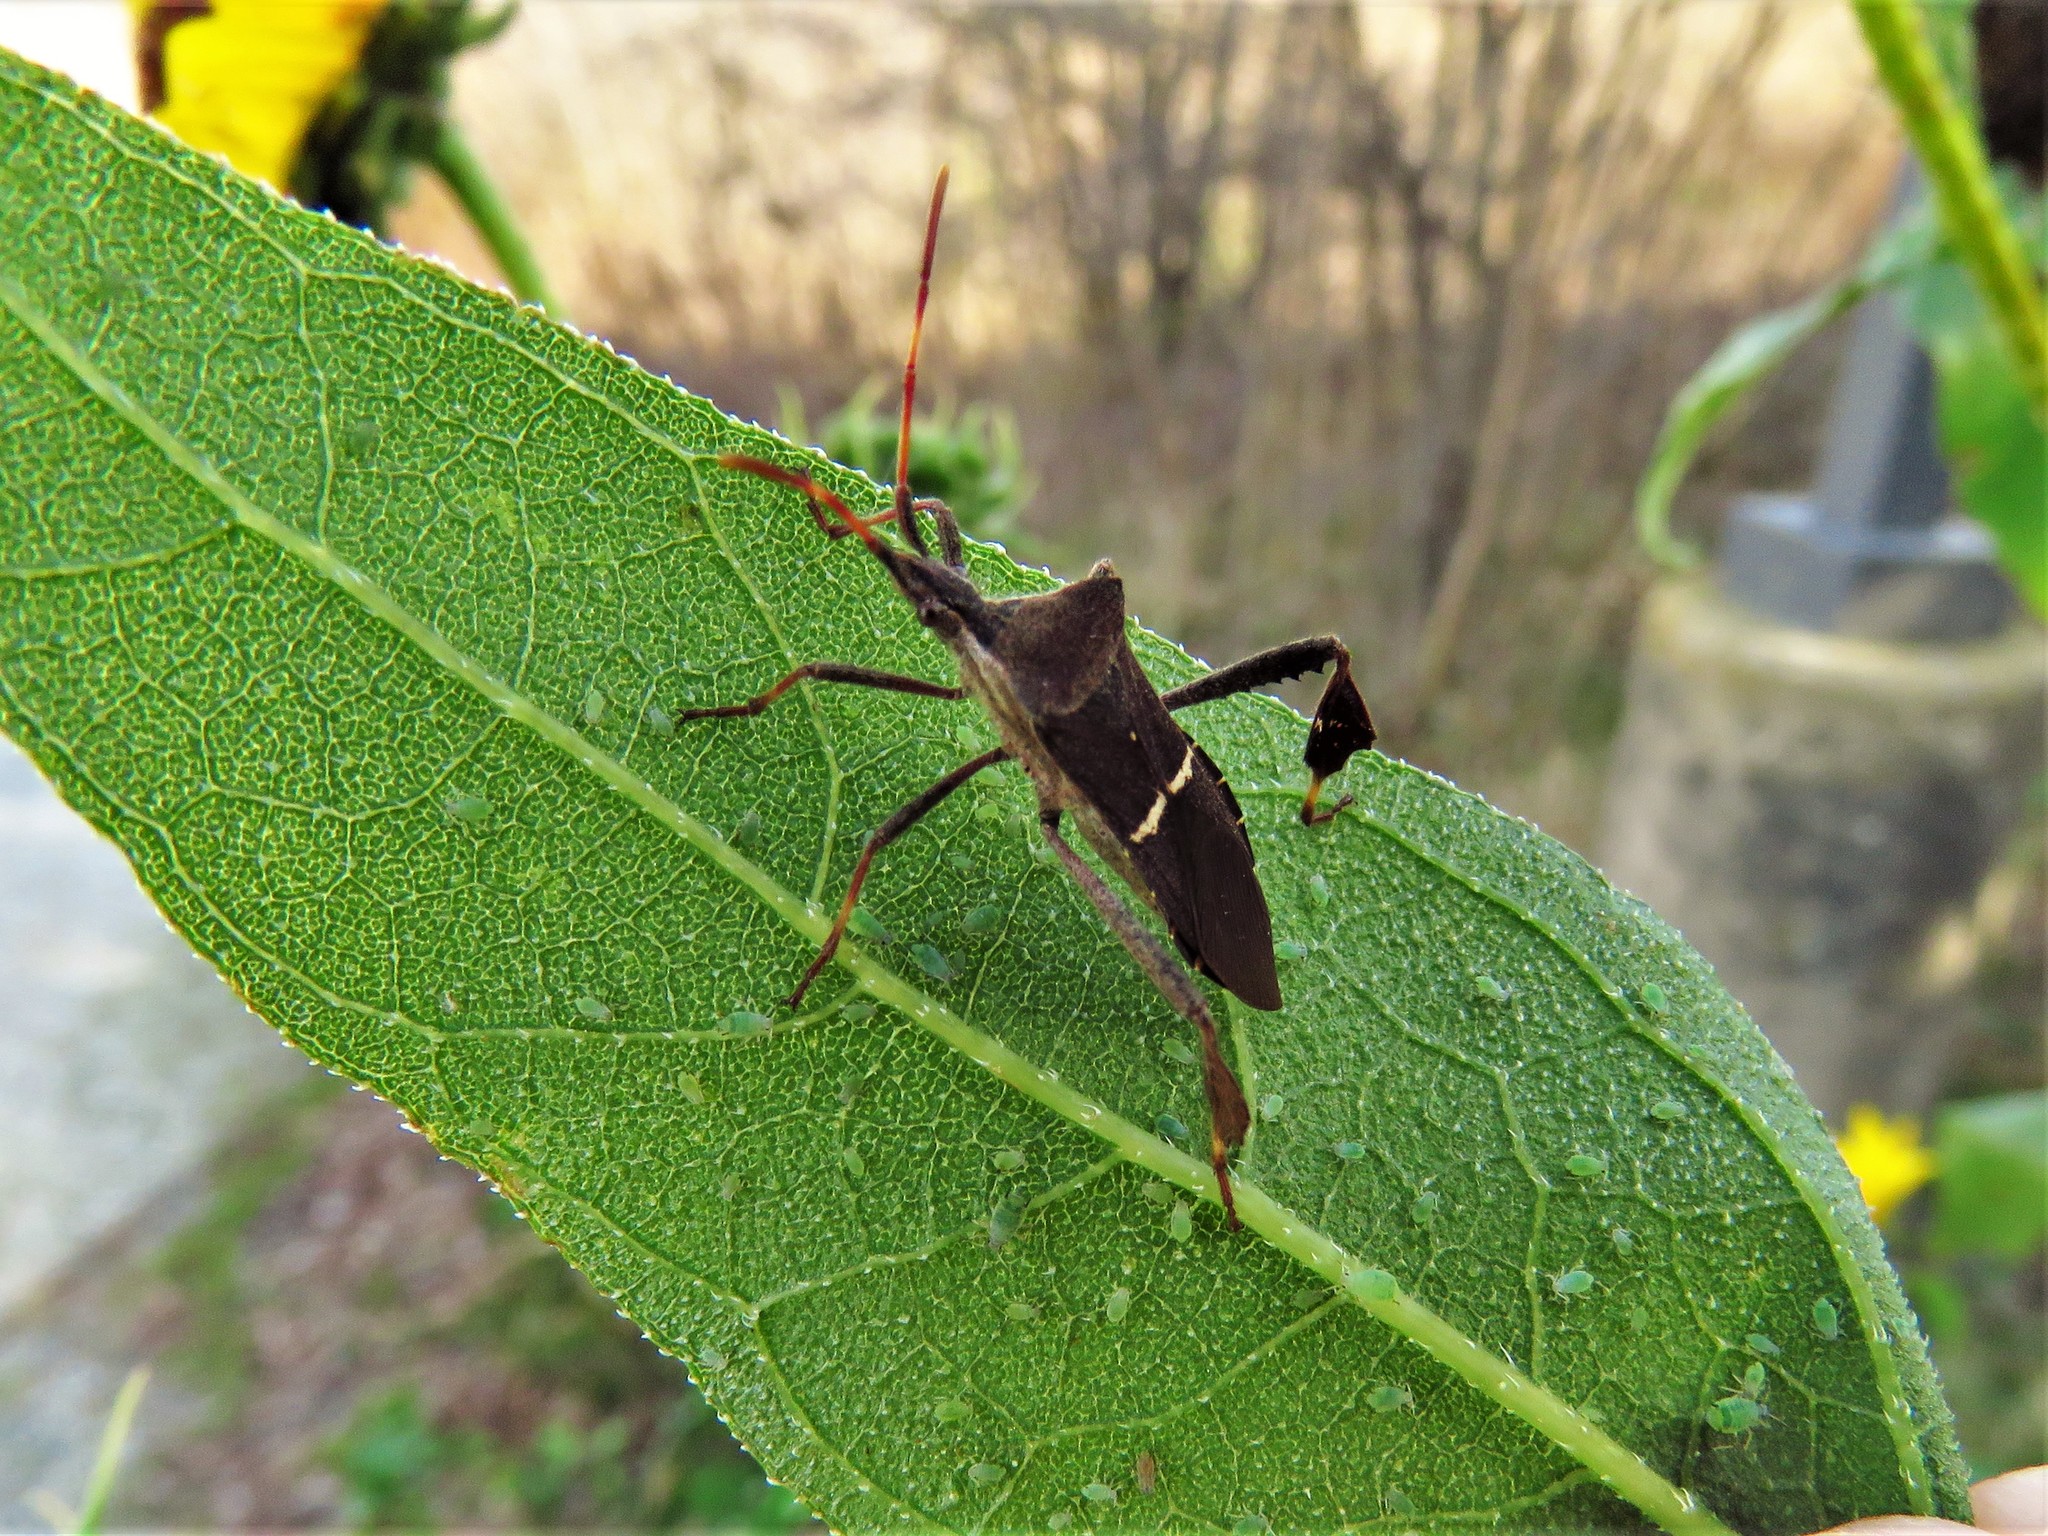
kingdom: Animalia
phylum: Arthropoda
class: Insecta
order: Hemiptera
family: Coreidae
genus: Leptoglossus
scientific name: Leptoglossus phyllopus
